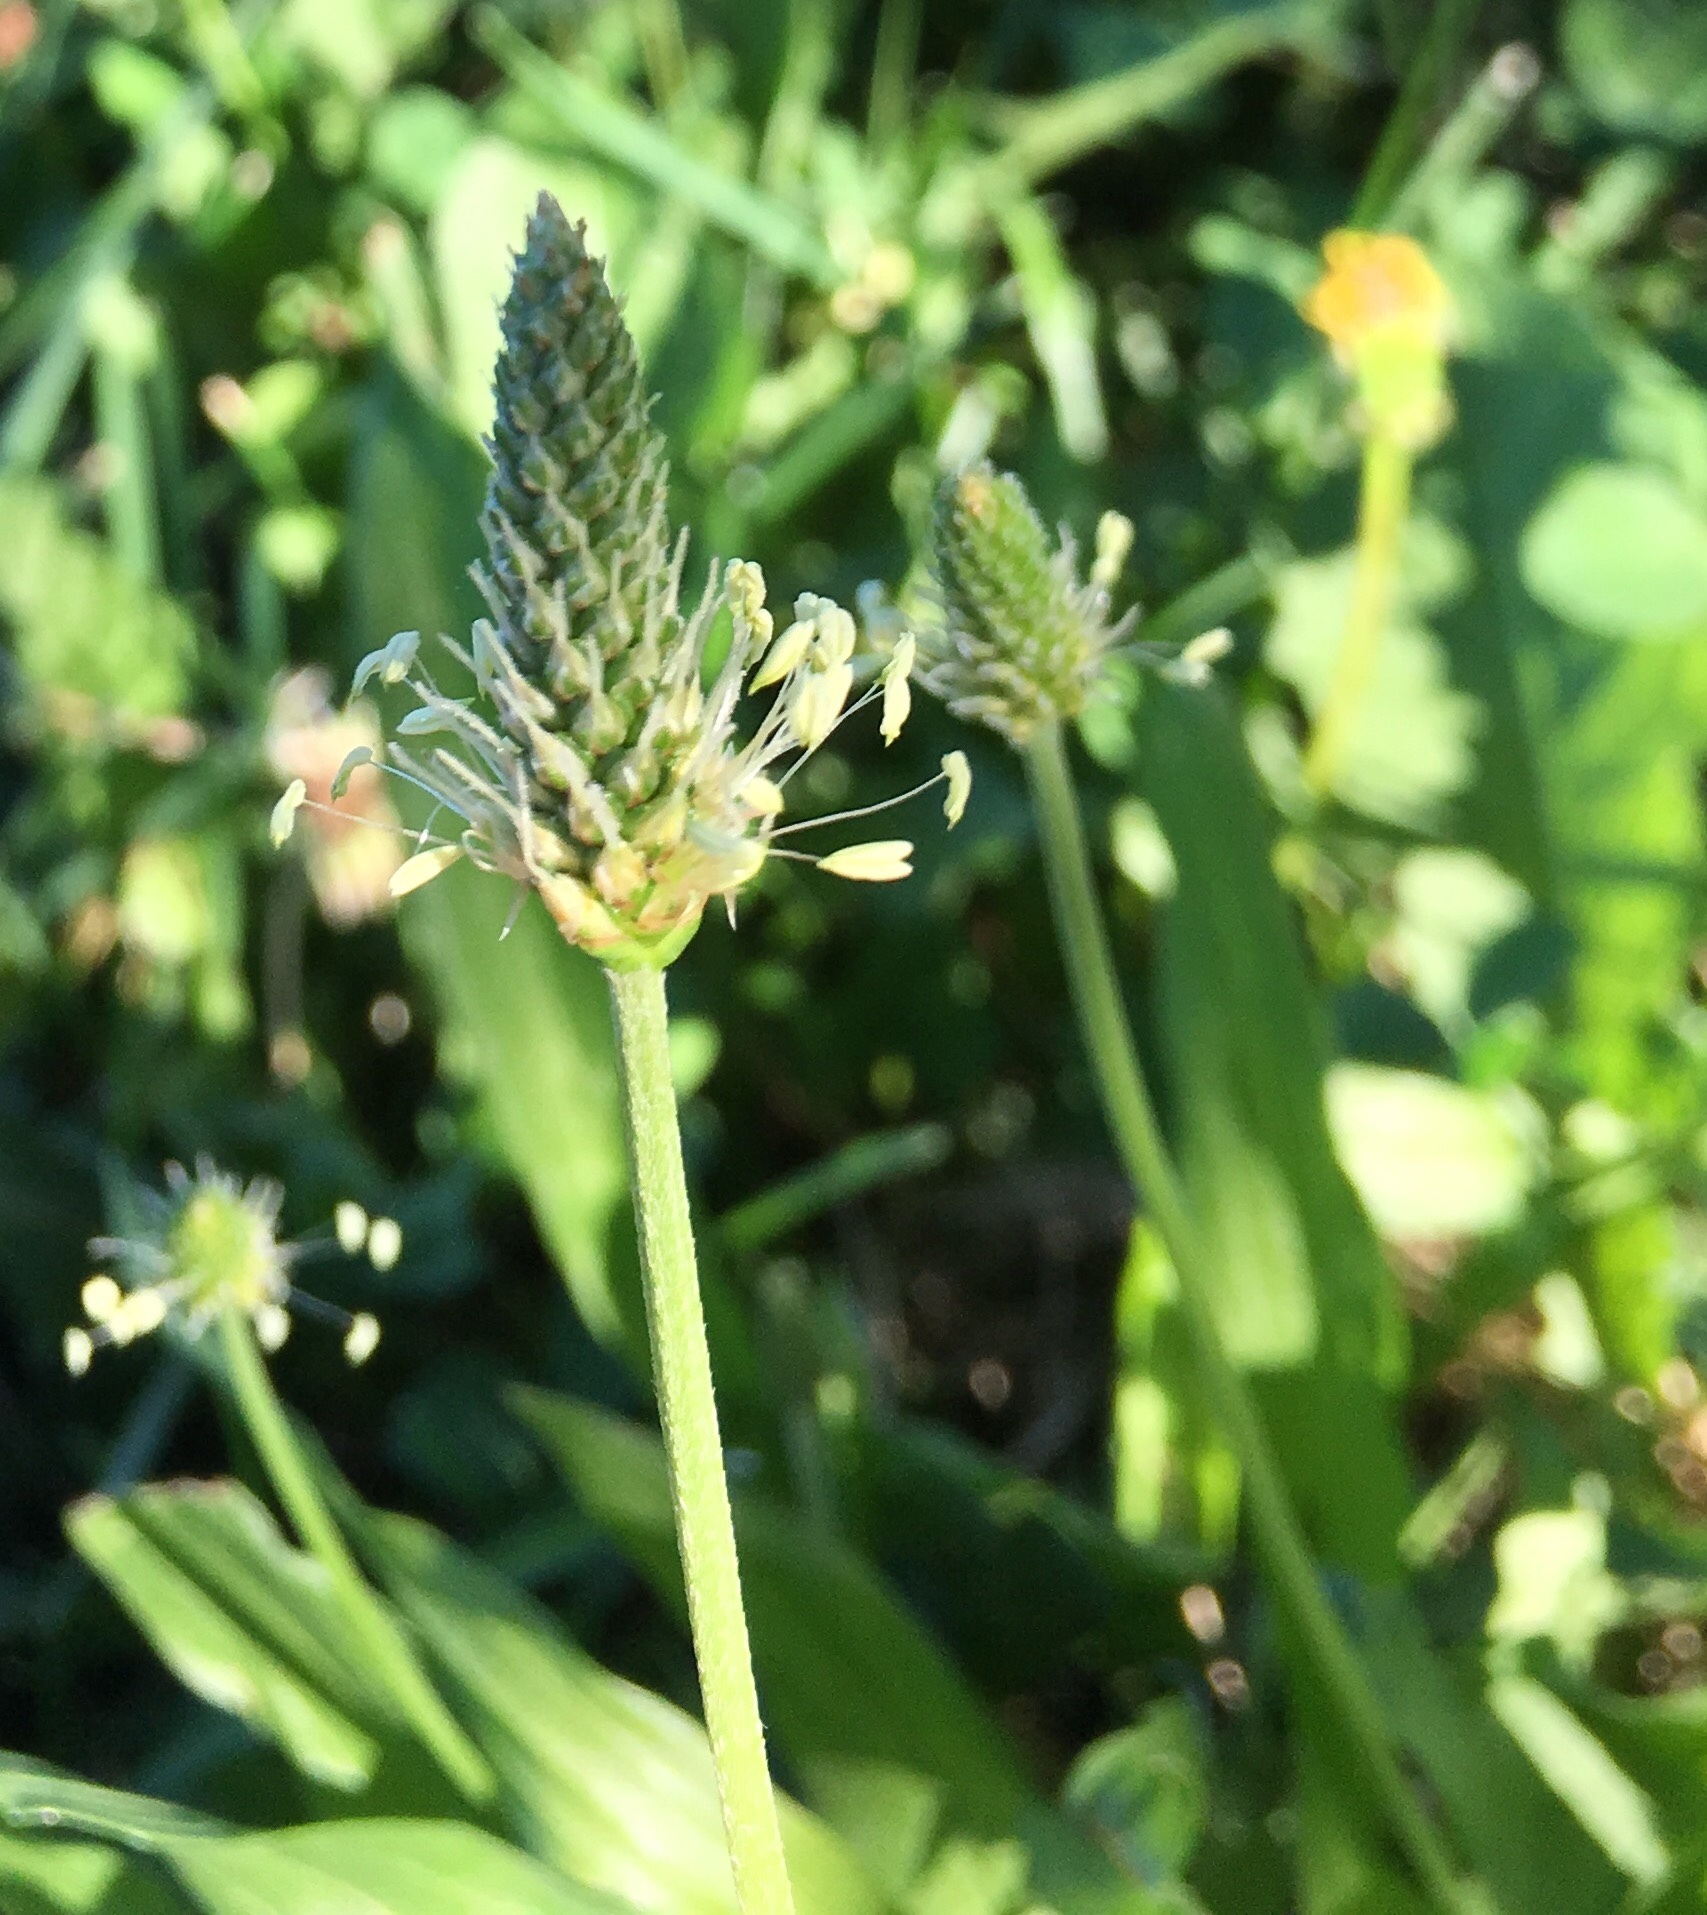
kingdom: Plantae
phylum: Tracheophyta
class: Magnoliopsida
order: Lamiales
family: Plantaginaceae
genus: Plantago
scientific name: Plantago lanceolata
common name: Ribwort plantain
